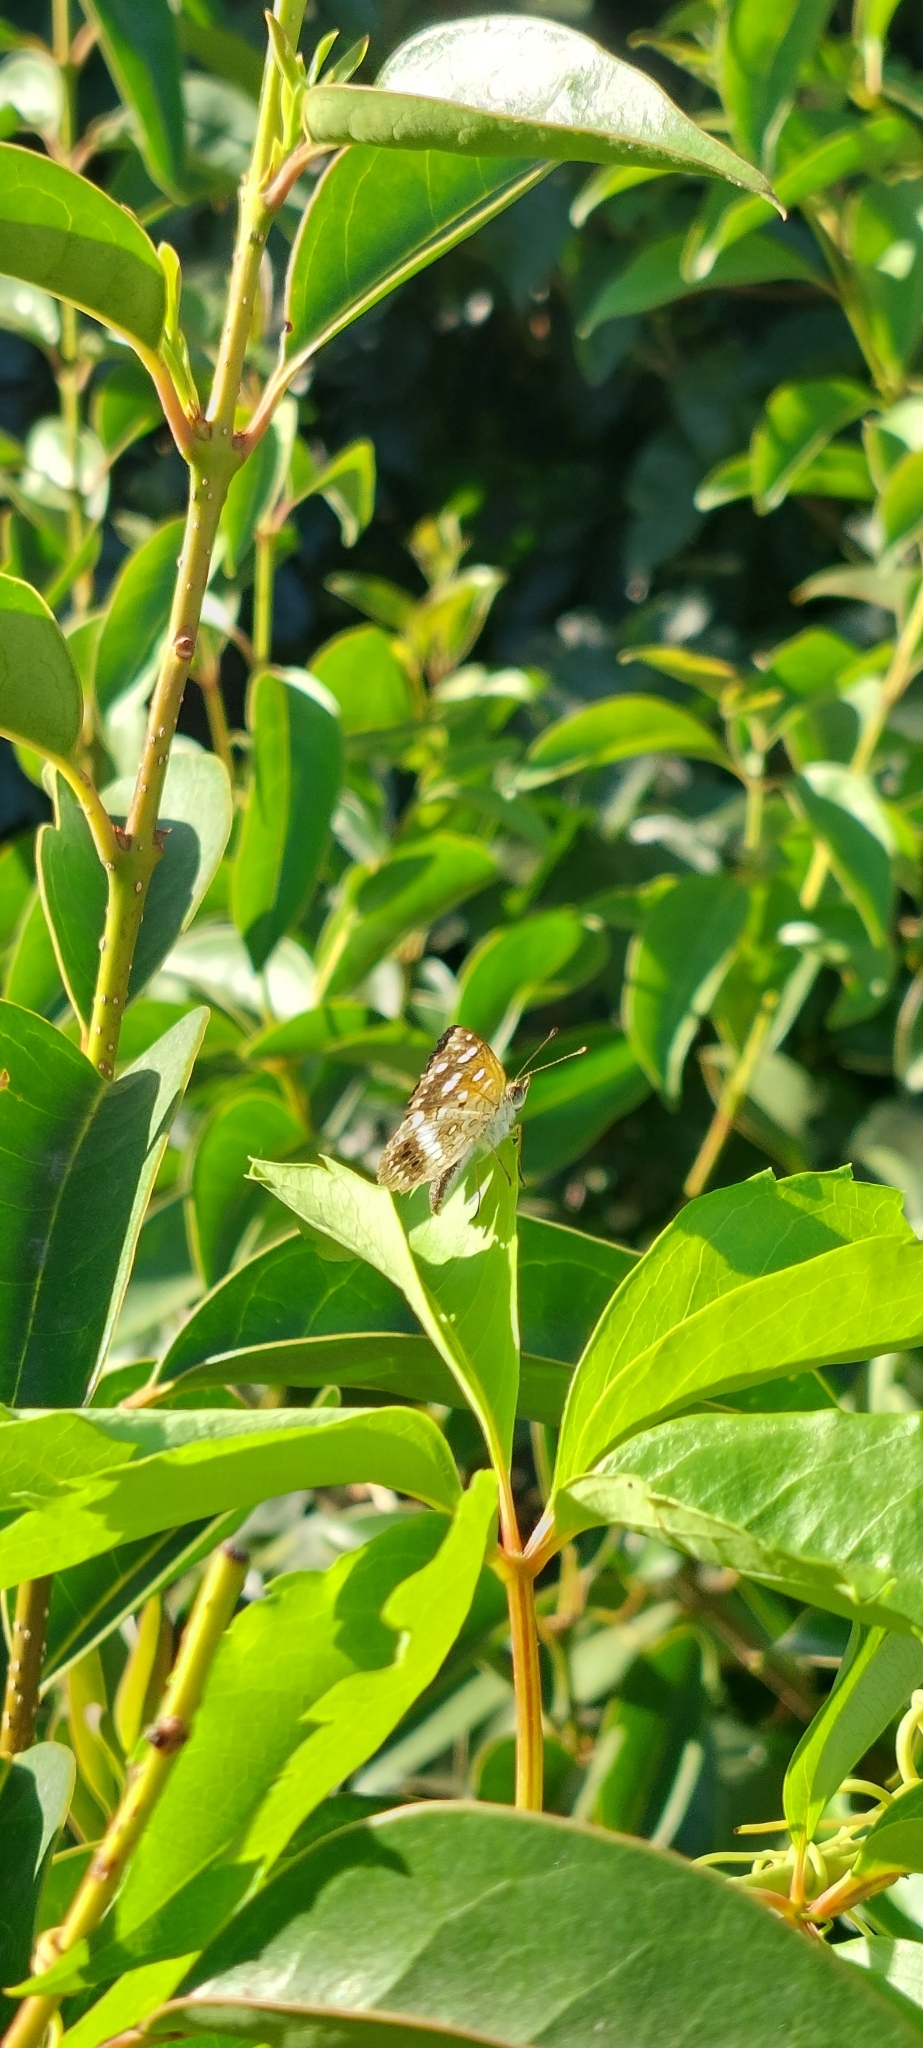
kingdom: Animalia
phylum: Arthropoda
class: Insecta
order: Lepidoptera
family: Nymphalidae
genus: Ortilia
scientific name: Ortilia ithra
